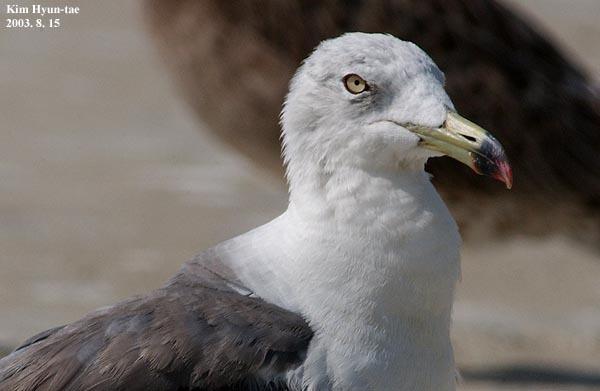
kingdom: Animalia
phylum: Chordata
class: Aves
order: Charadriiformes
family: Laridae
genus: Larus
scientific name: Larus crassirostris
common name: Black-tailed gull
